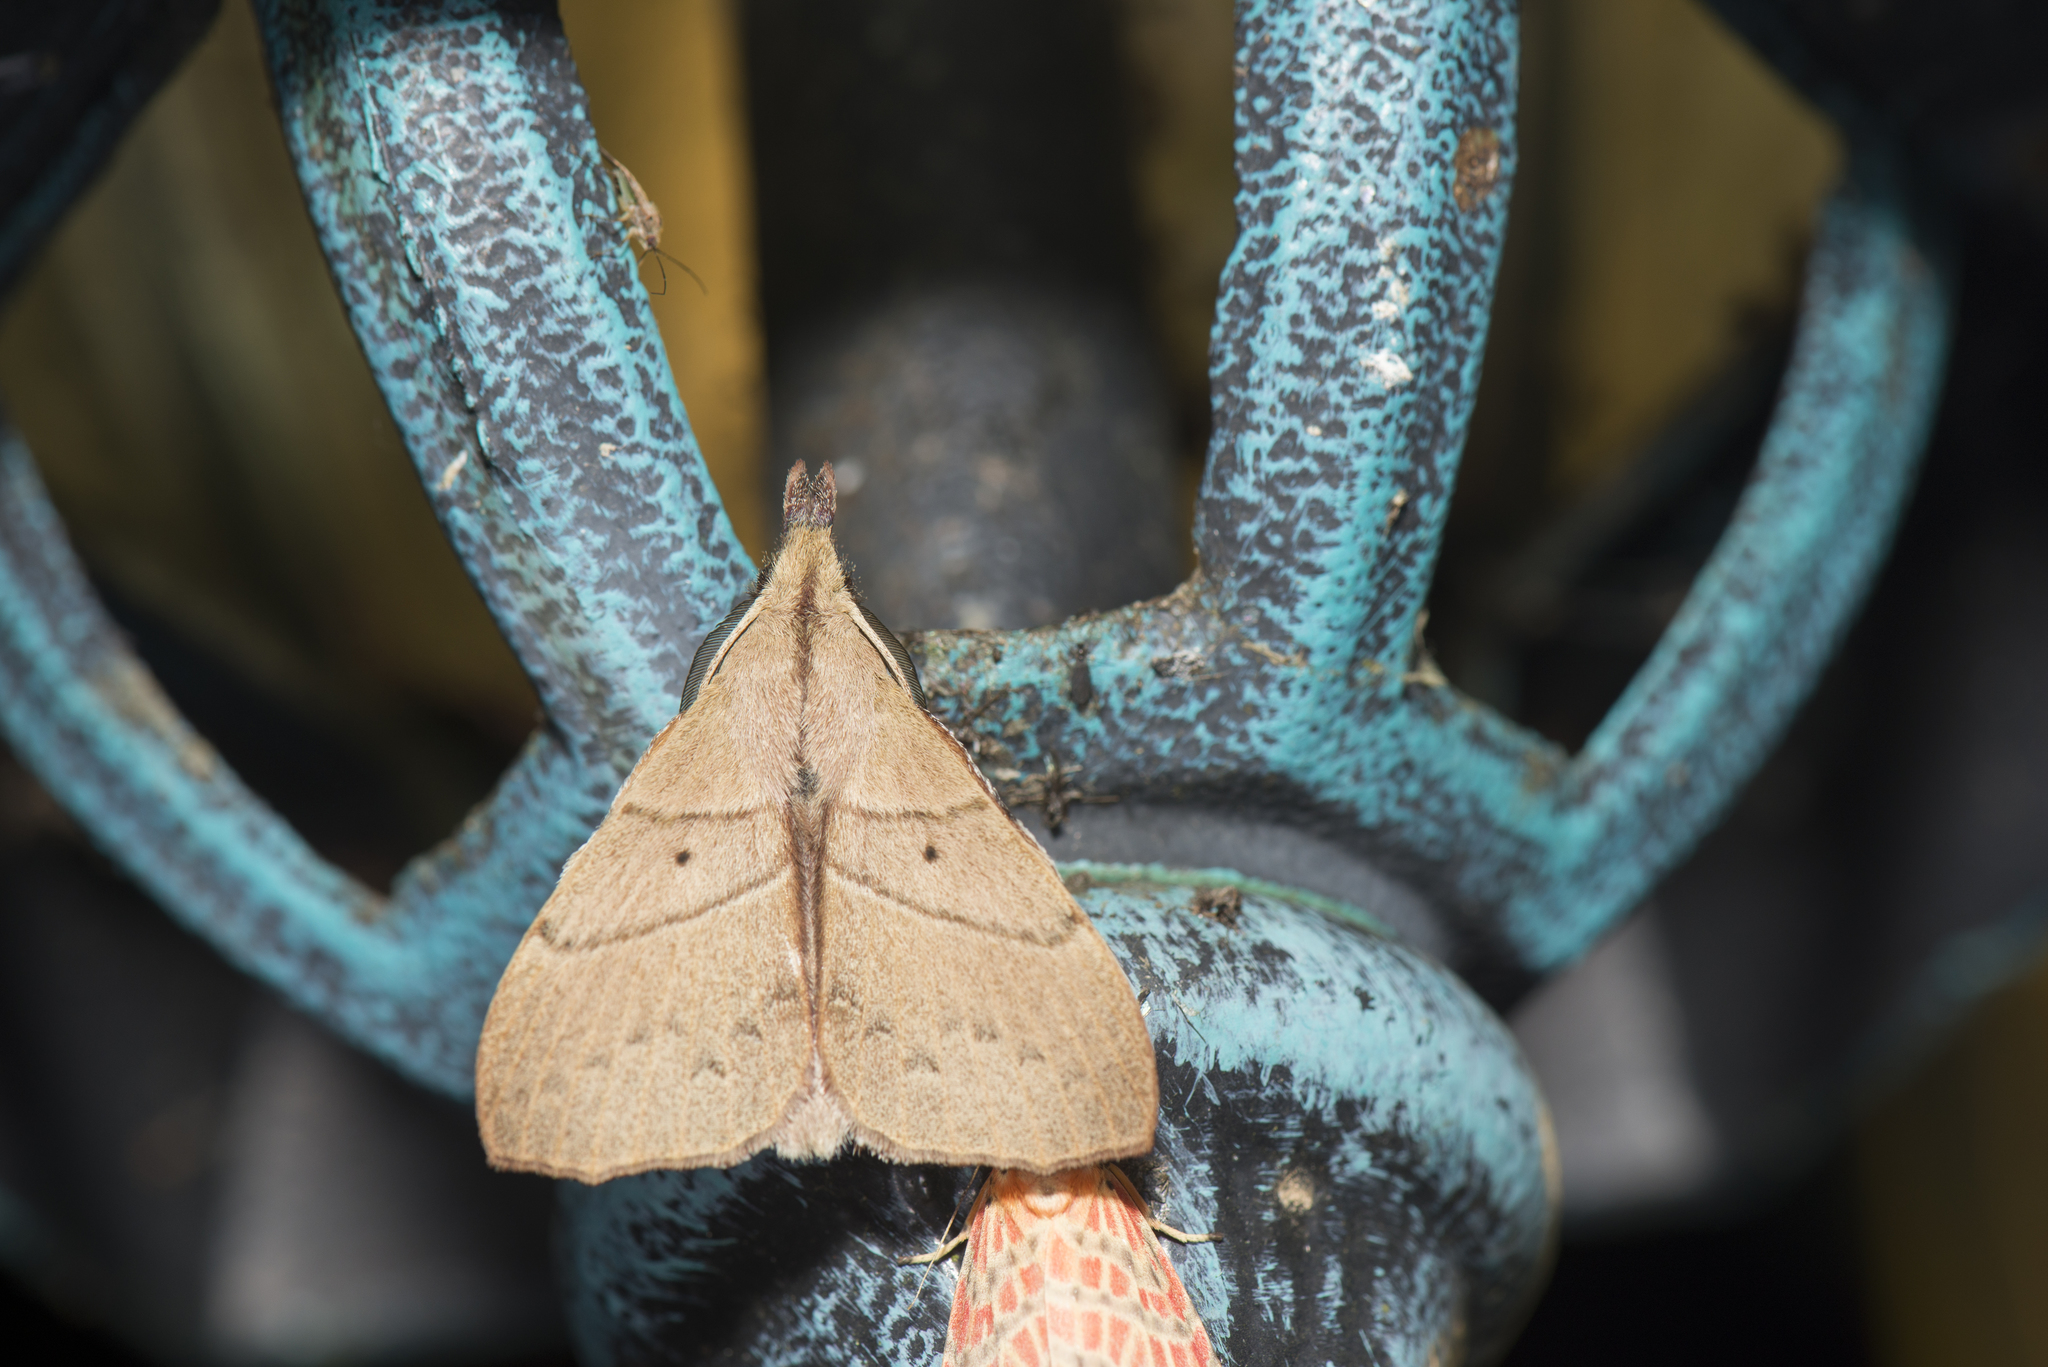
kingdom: Animalia
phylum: Arthropoda
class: Insecta
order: Lepidoptera
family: Lasiocampidae
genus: Radhica
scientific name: Radhica flavovittata
